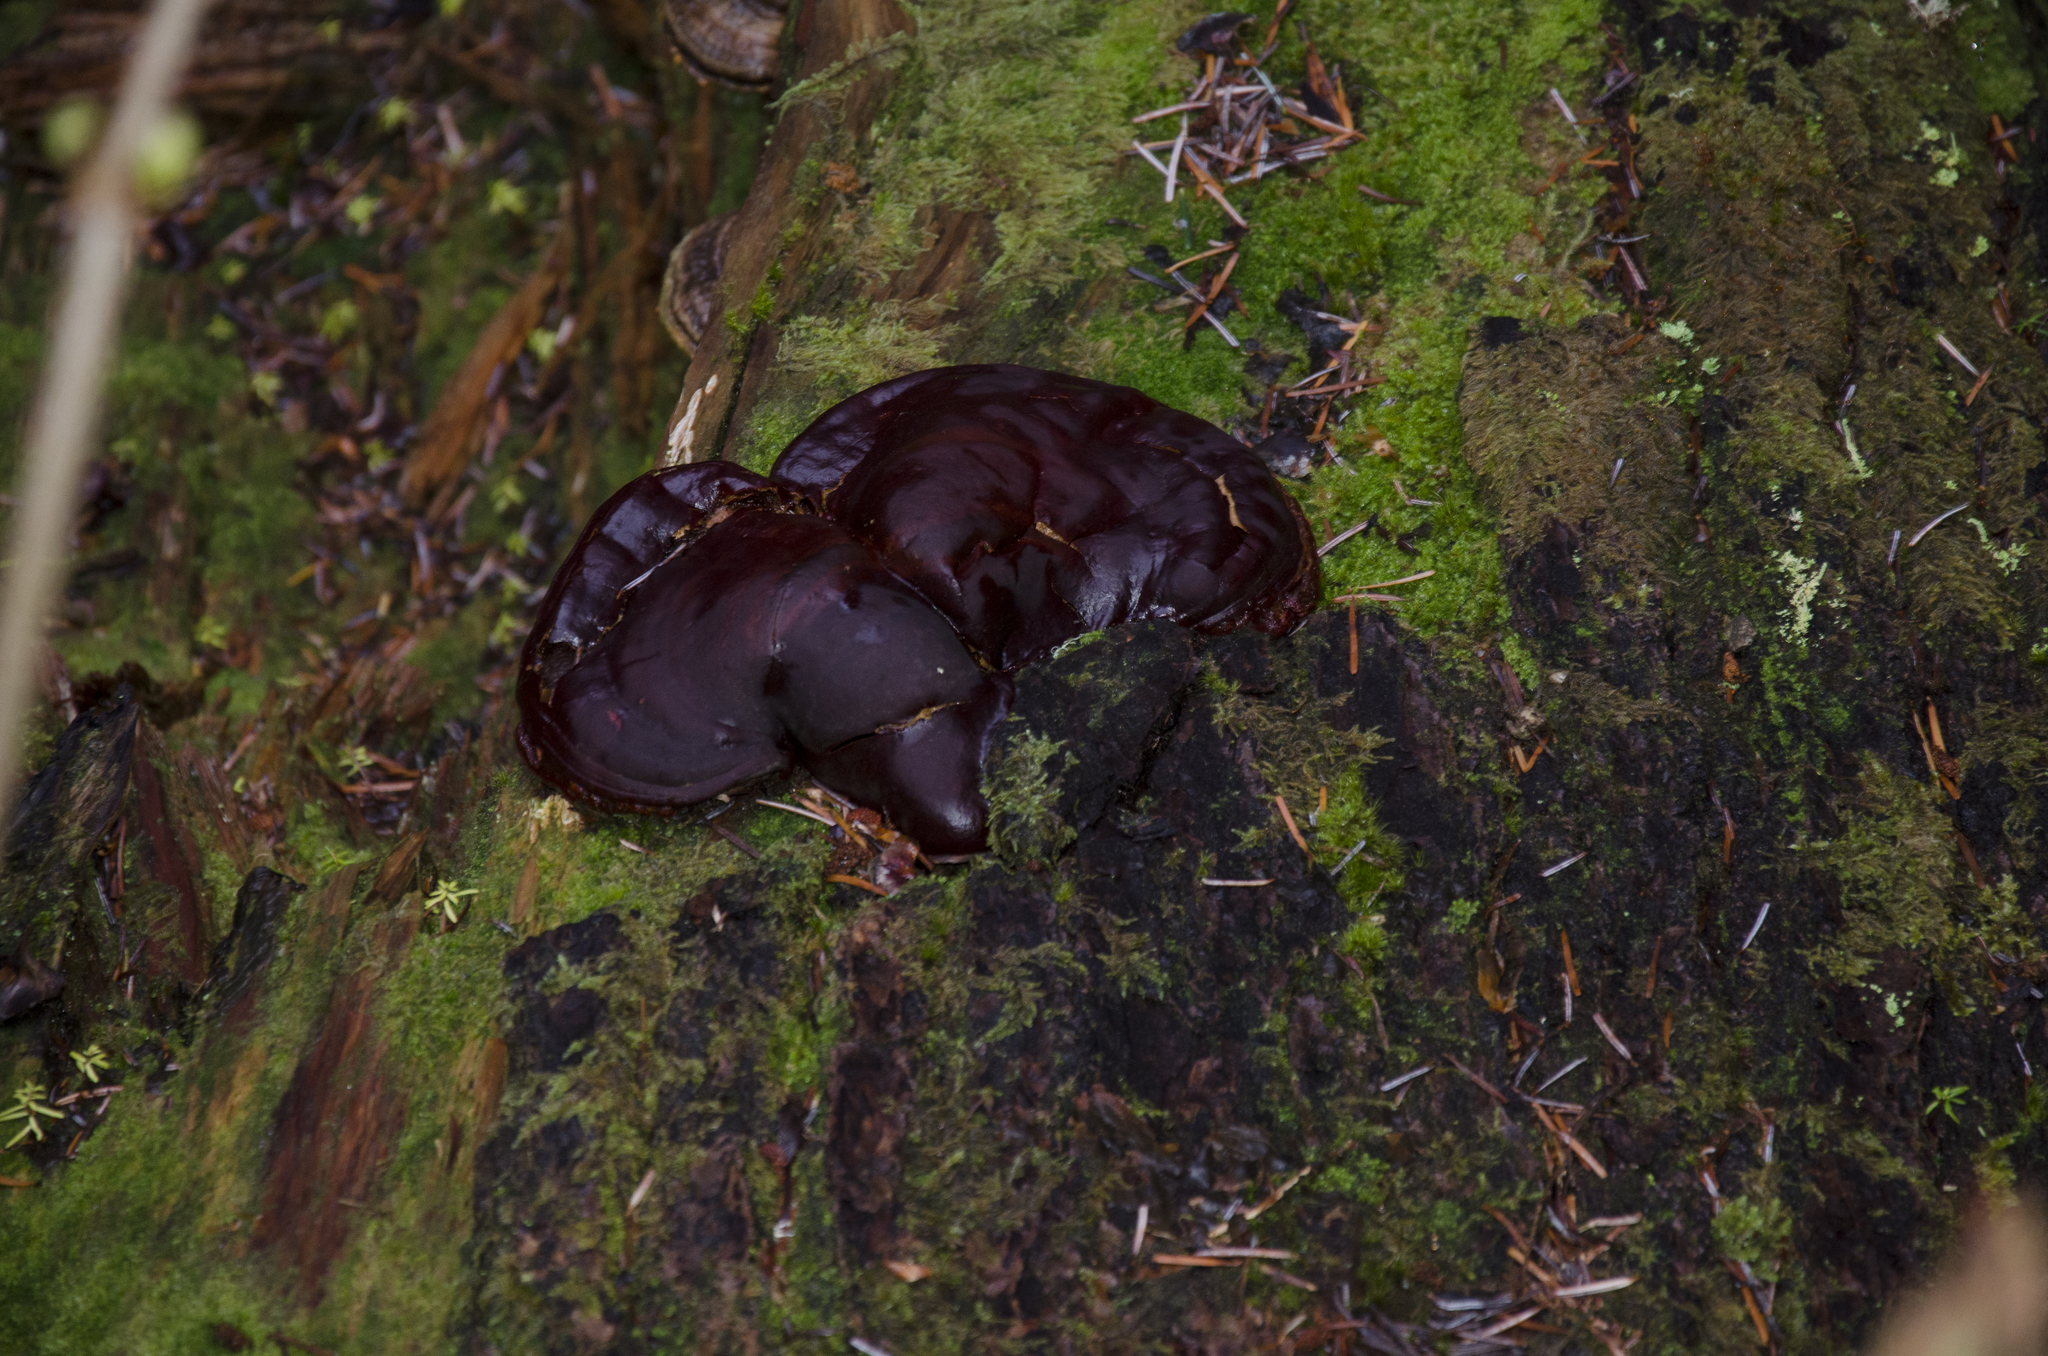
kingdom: Fungi
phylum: Basidiomycota
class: Agaricomycetes
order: Polyporales
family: Polyporaceae
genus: Ganoderma
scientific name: Ganoderma oregonense
